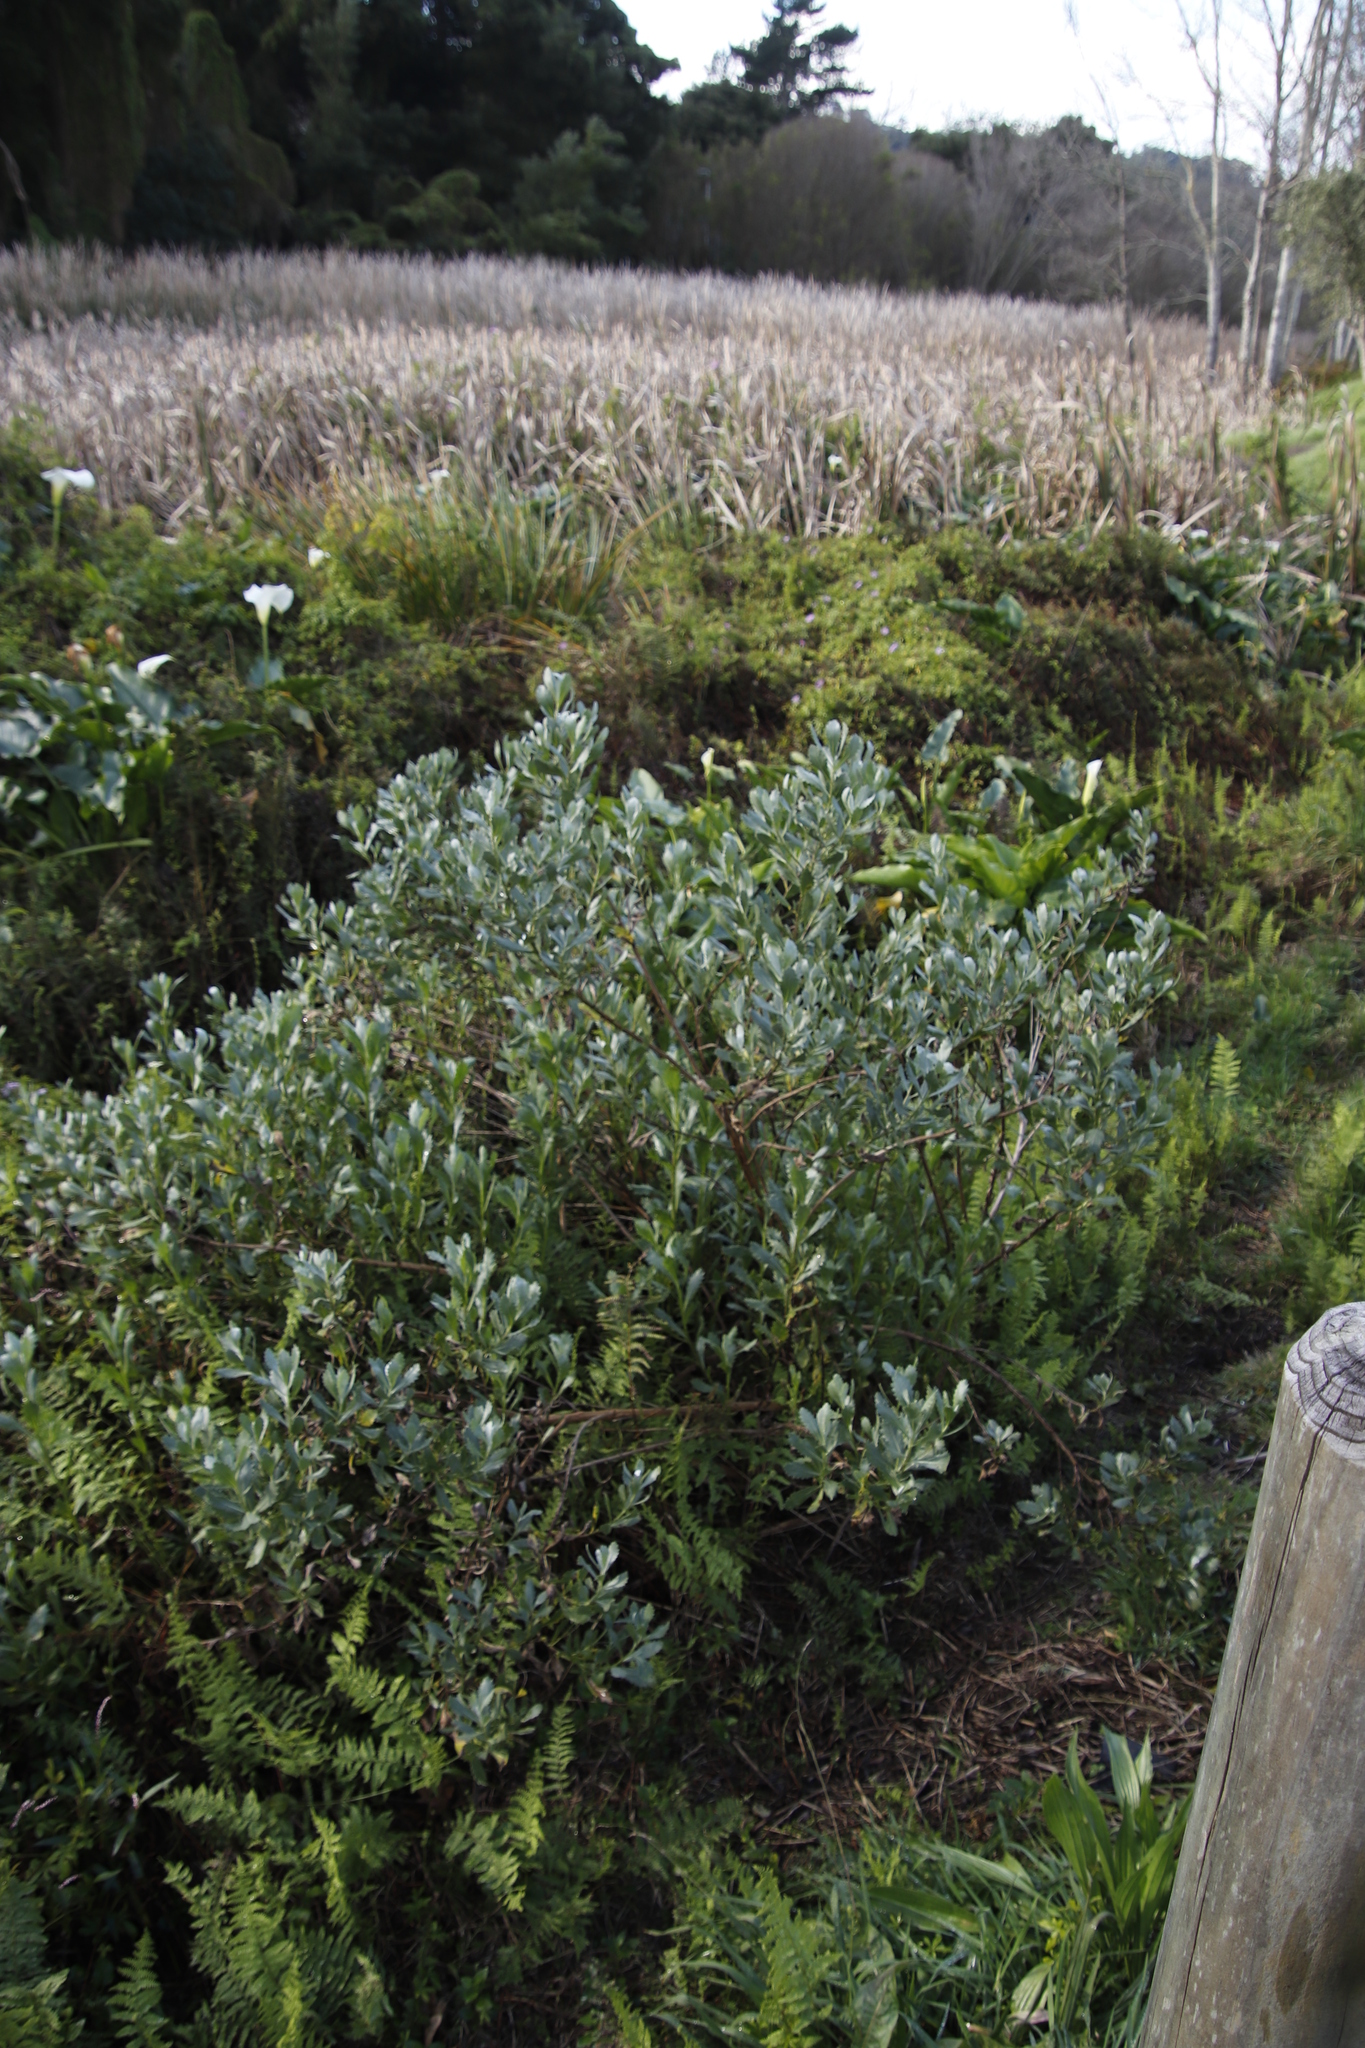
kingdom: Plantae
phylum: Tracheophyta
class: Magnoliopsida
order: Asterales
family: Asteraceae
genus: Osteospermum
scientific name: Osteospermum moniliferum
